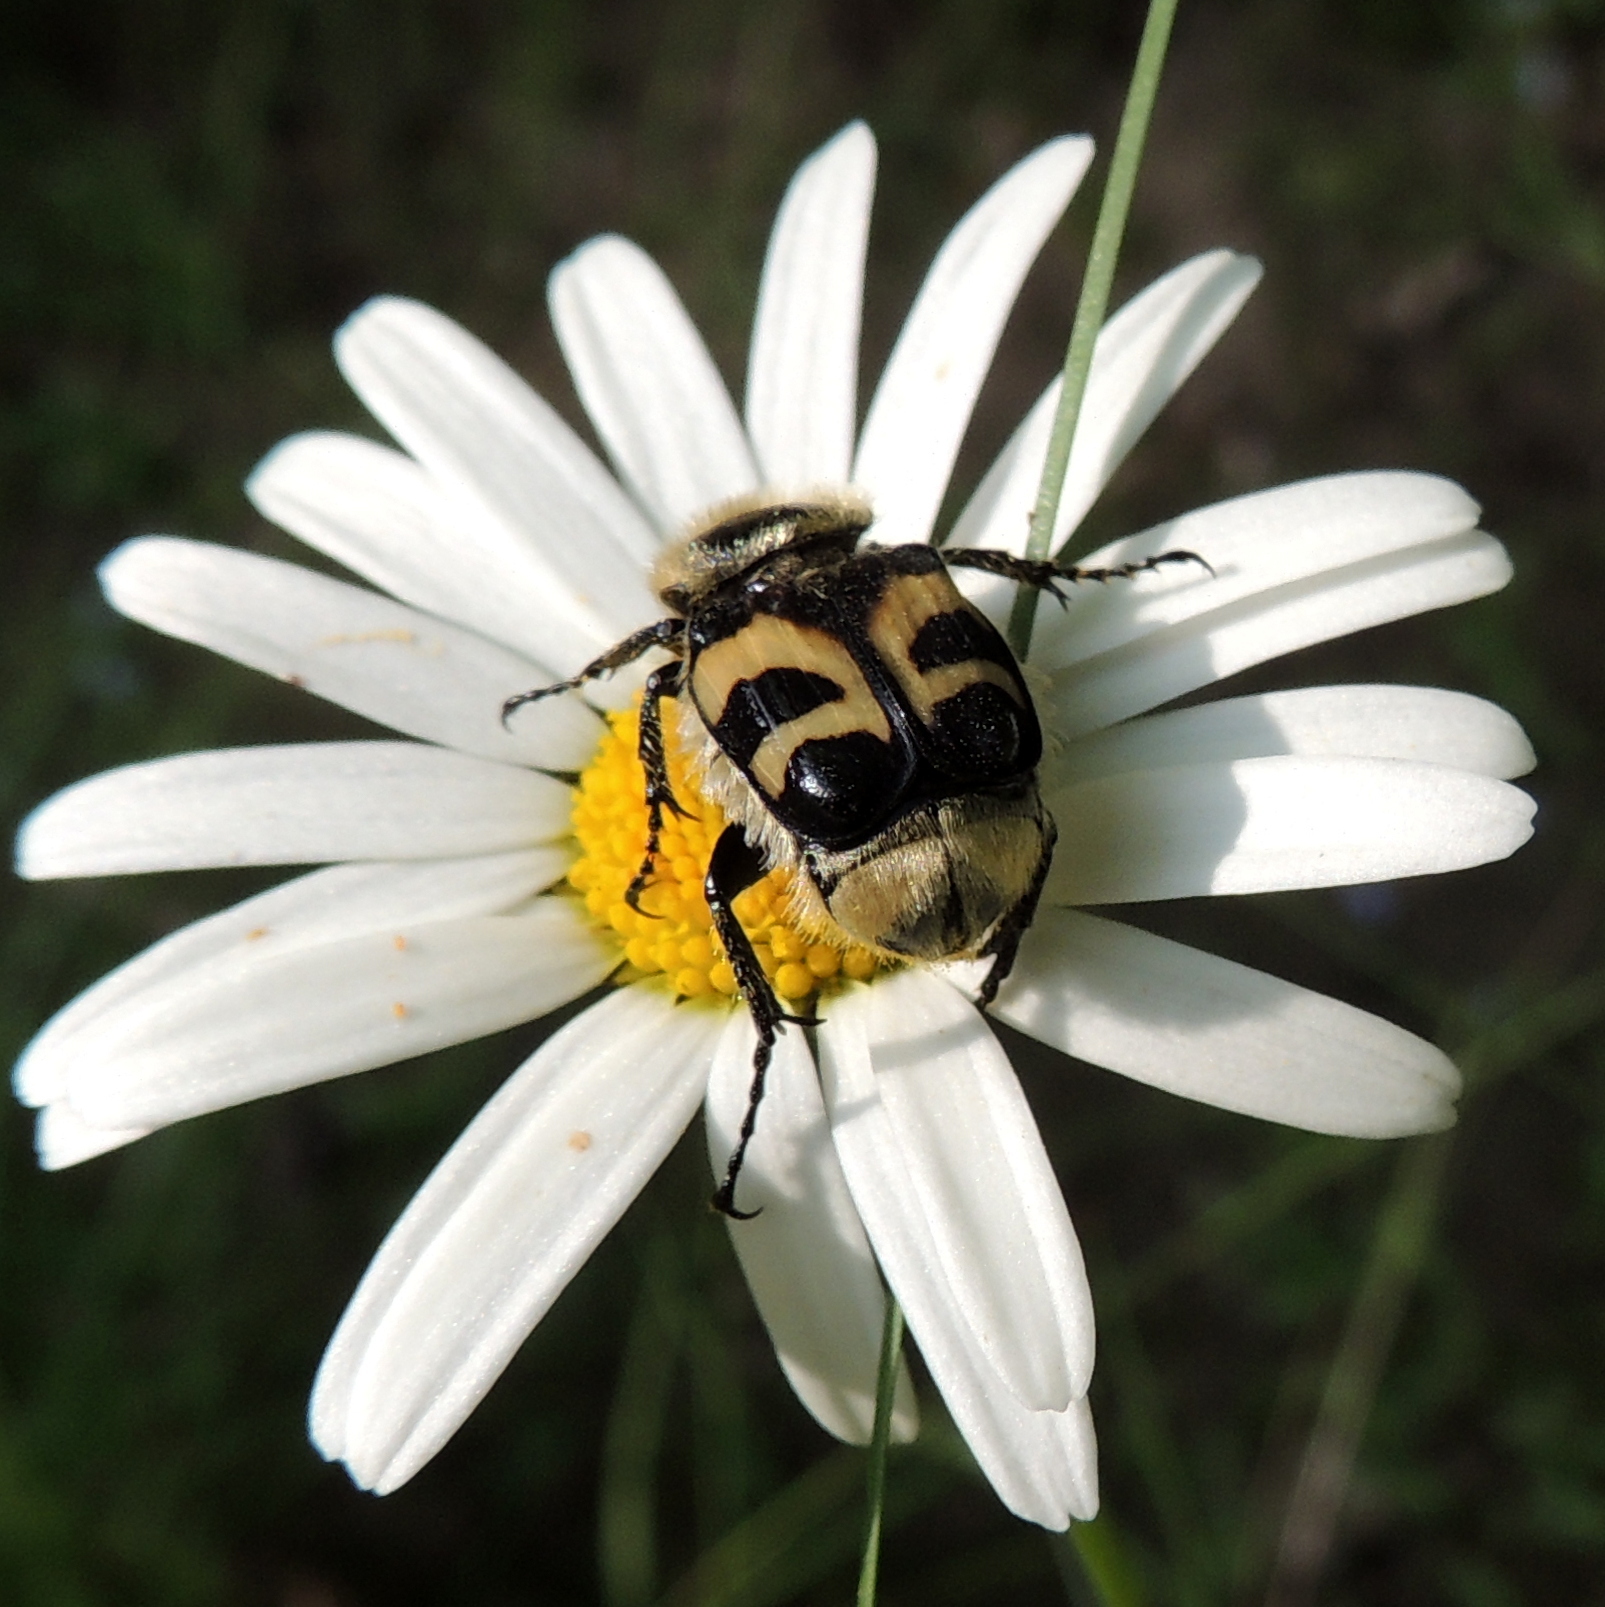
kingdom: Animalia
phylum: Arthropoda
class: Insecta
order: Coleoptera
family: Scarabaeidae
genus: Trichius
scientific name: Trichius fasciatus
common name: Bee beetle
